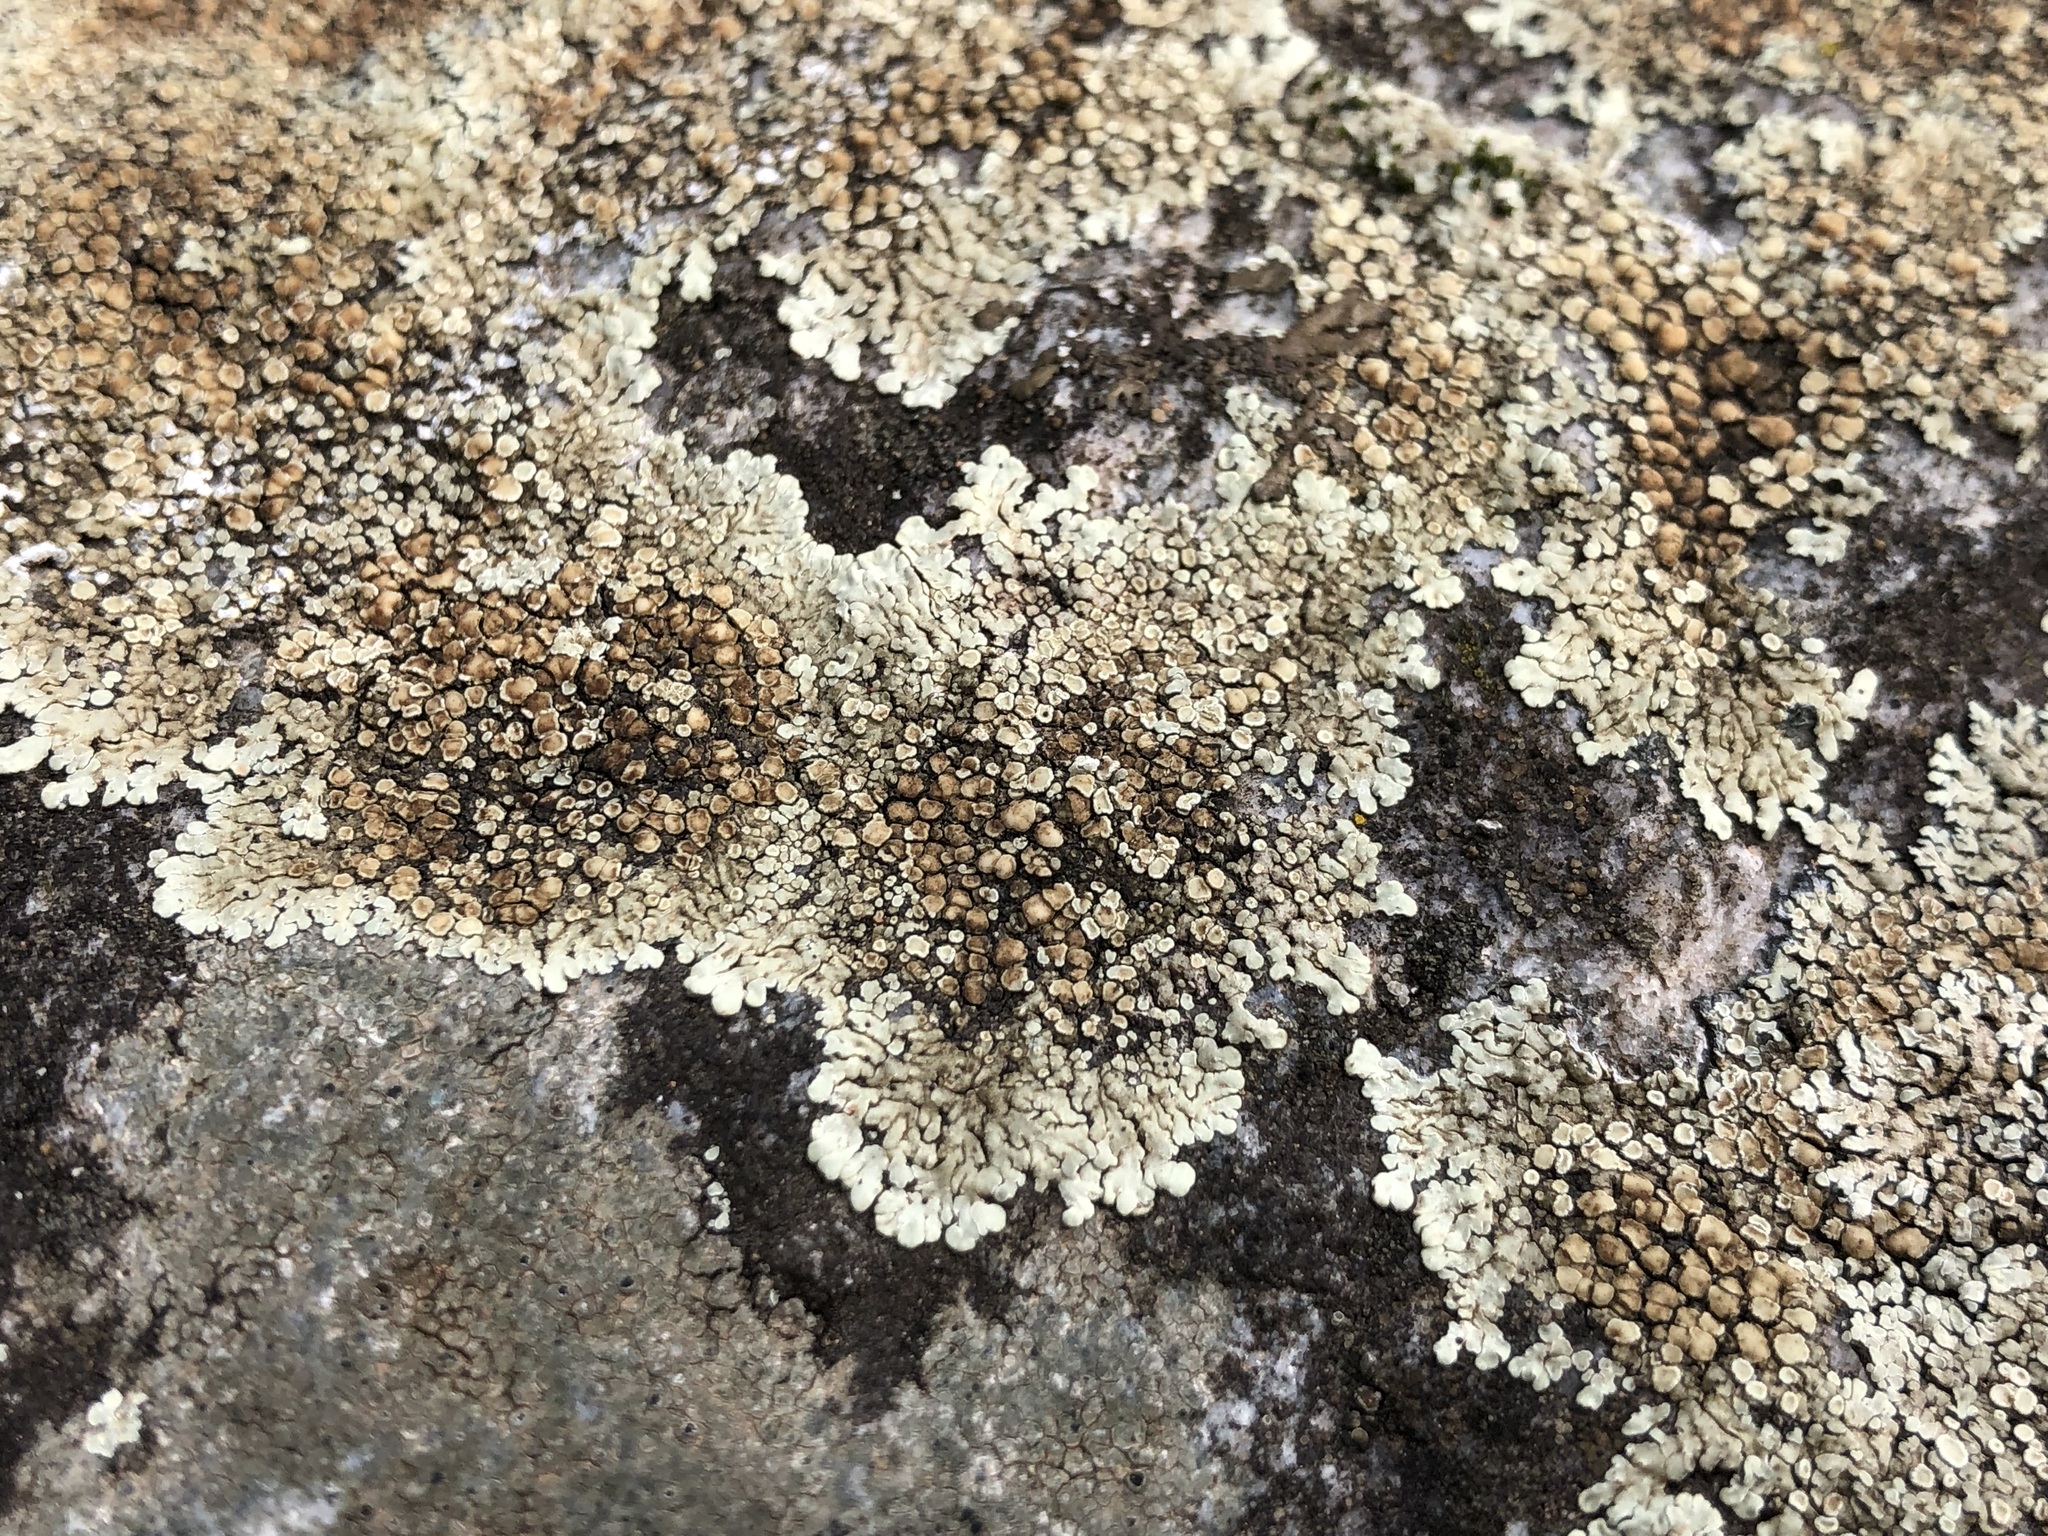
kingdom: Fungi
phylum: Ascomycota
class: Lecanoromycetes
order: Lecanorales
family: Lecanoraceae
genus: Protoparmeliopsis
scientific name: Protoparmeliopsis muralis
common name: Stonewall rim lichen
